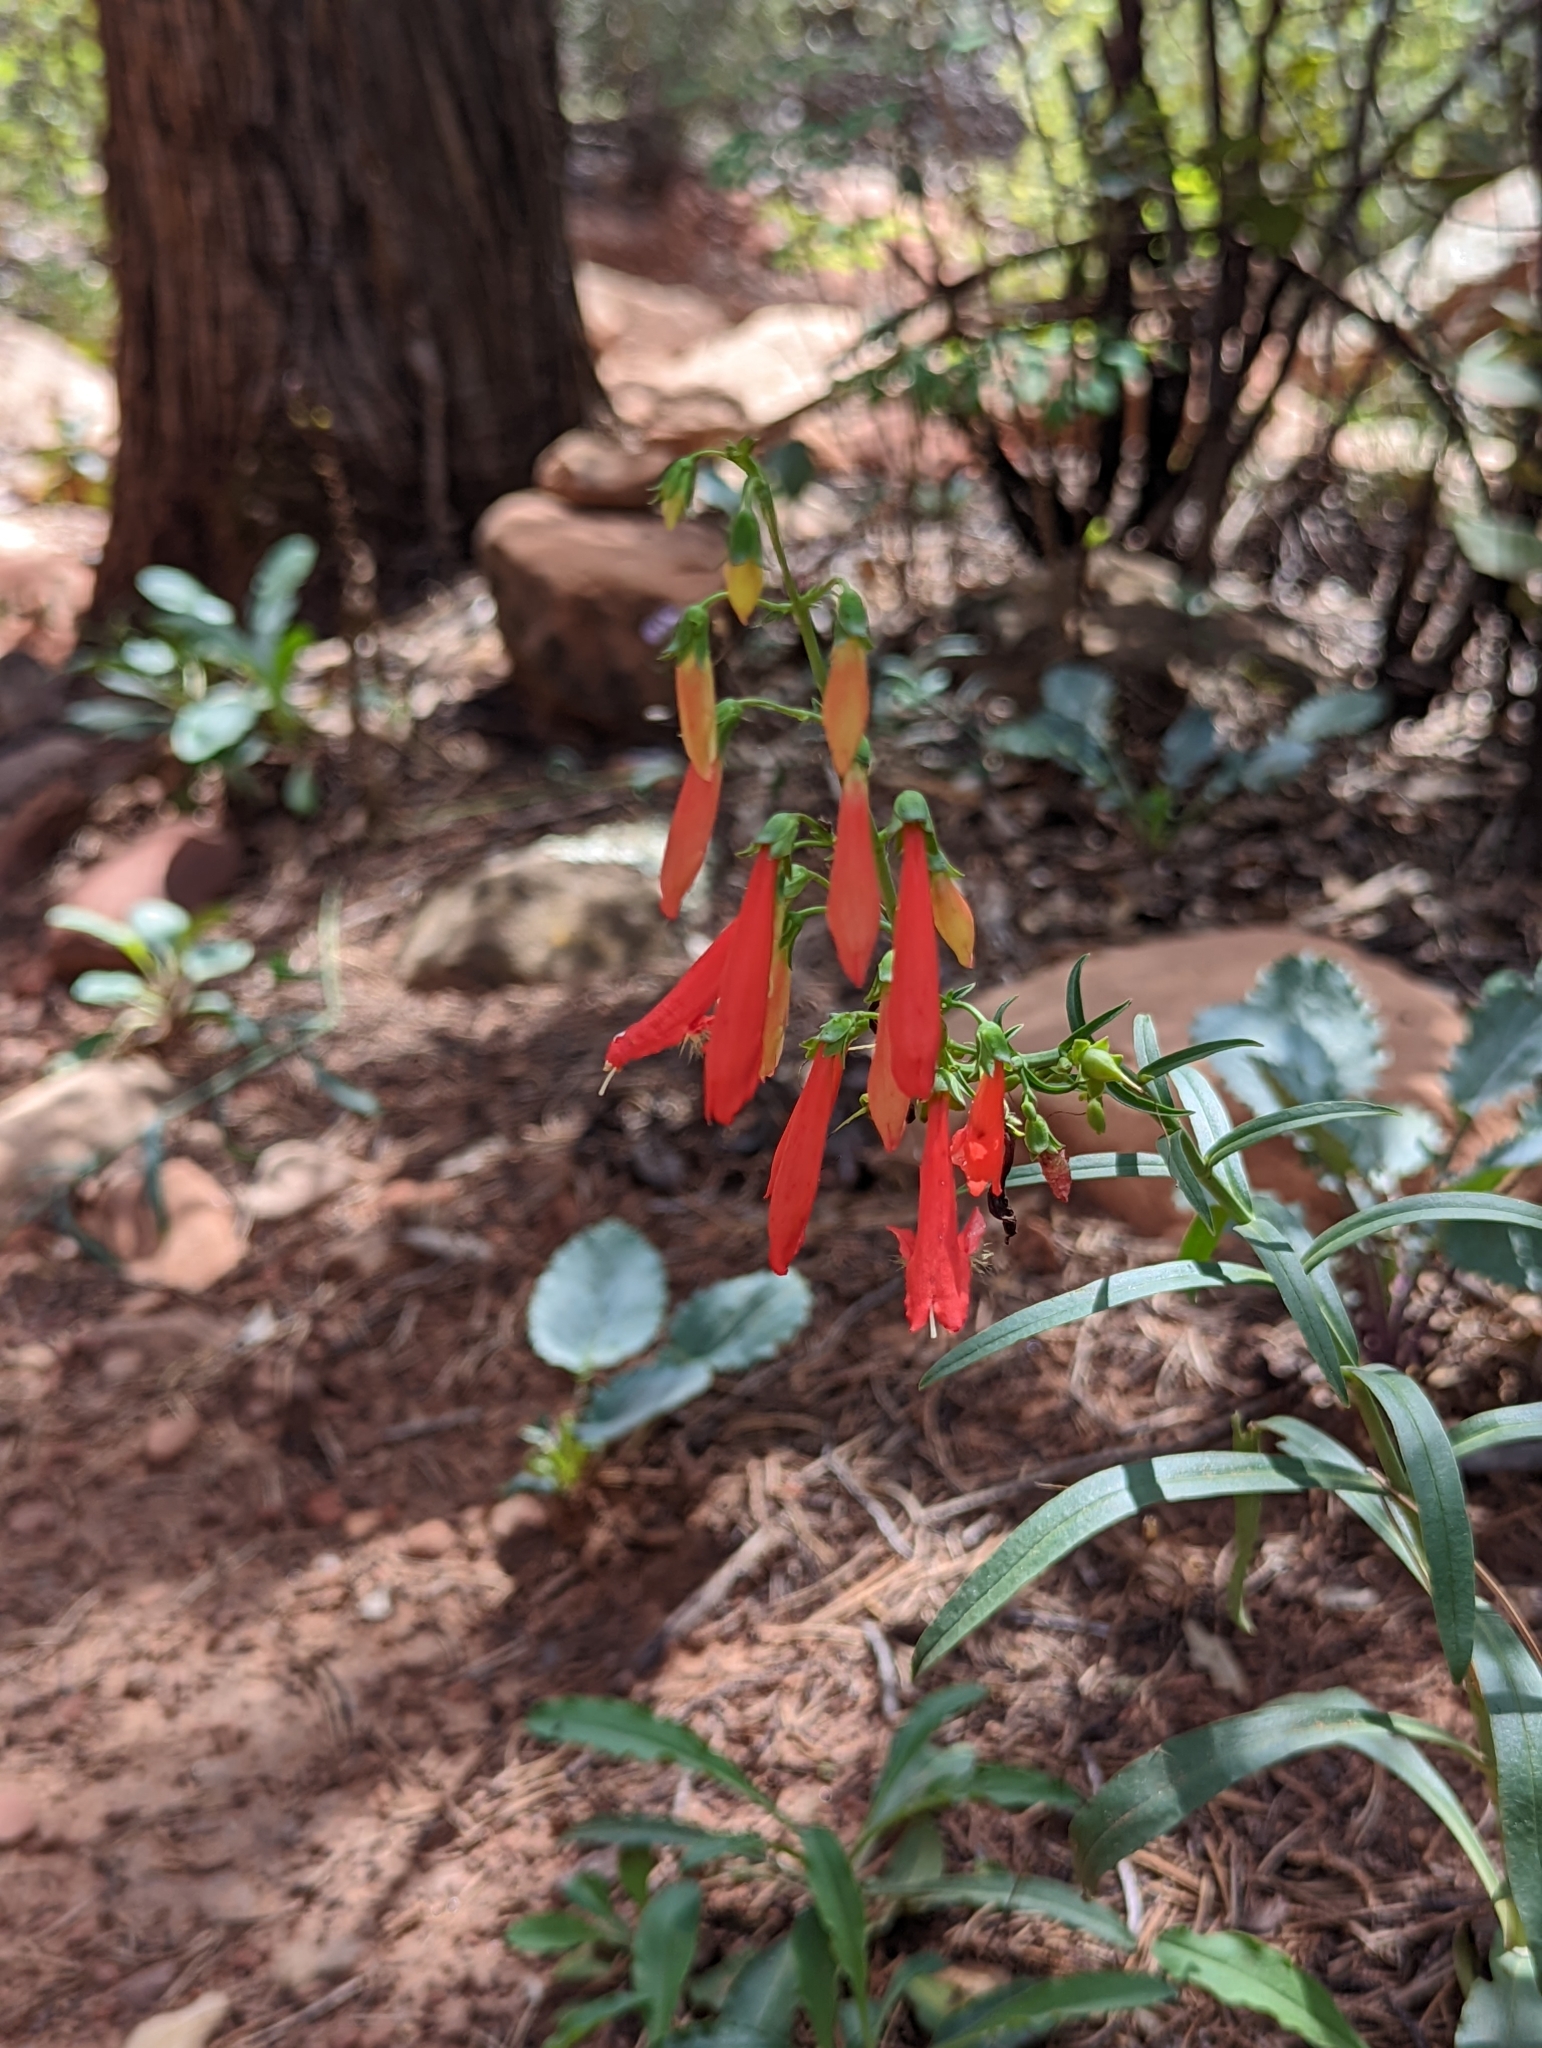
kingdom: Plantae
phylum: Tracheophyta
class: Magnoliopsida
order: Lamiales
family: Plantaginaceae
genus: Penstemon
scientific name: Penstemon barbatus
